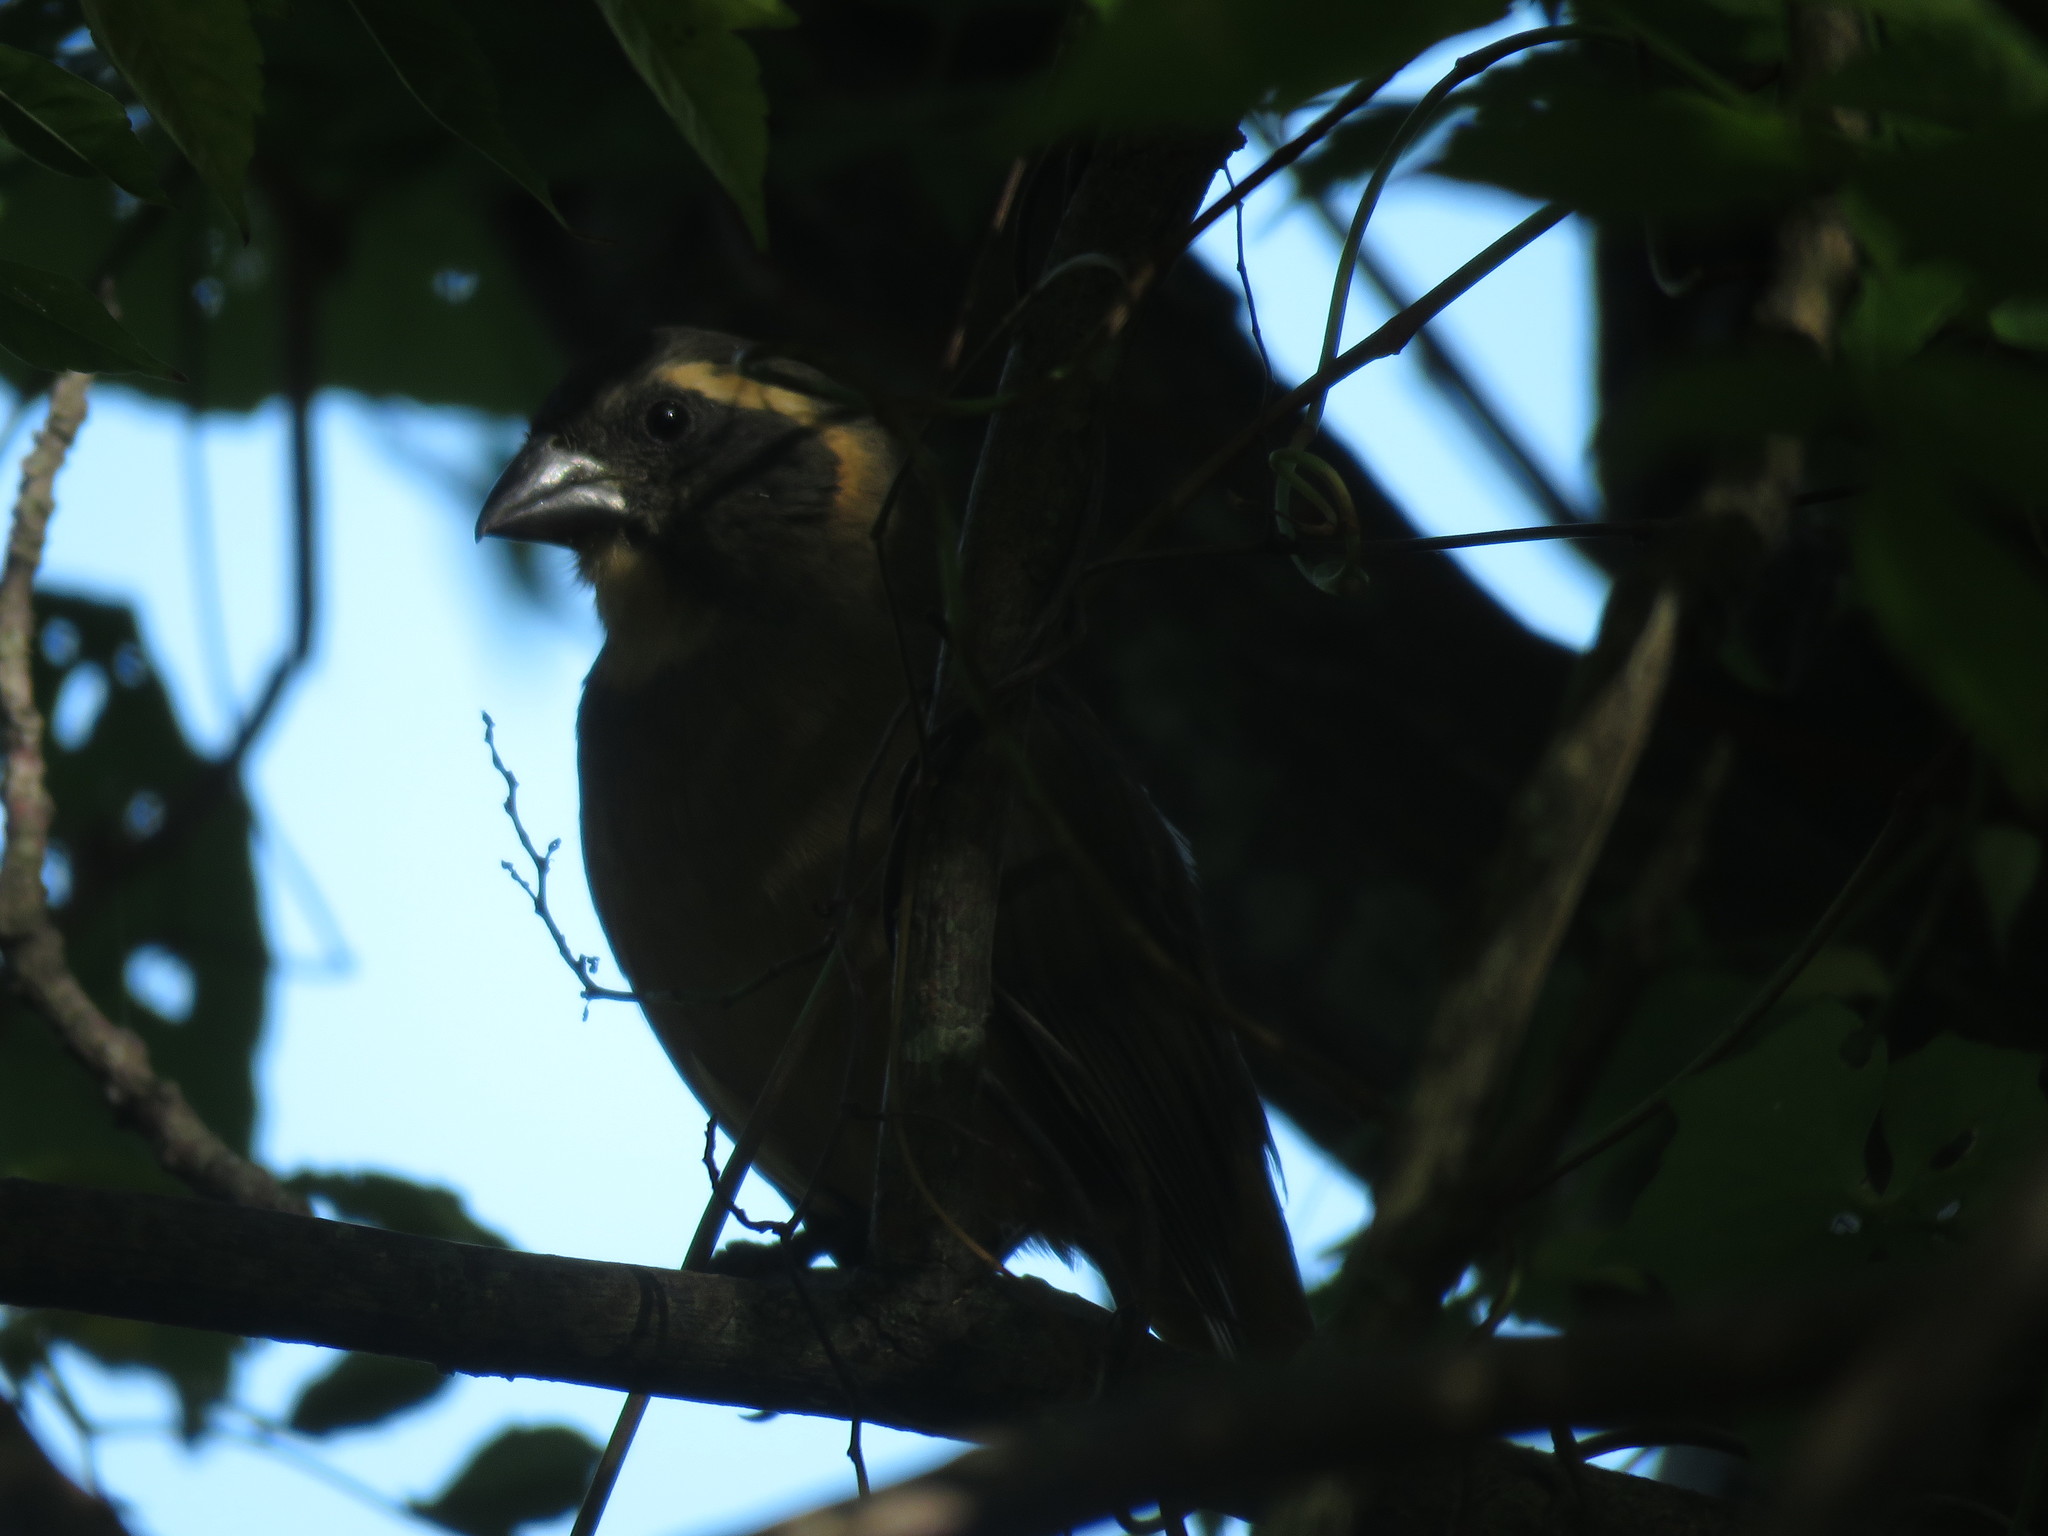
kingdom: Animalia
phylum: Chordata
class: Aves
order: Passeriformes
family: Thraupidae
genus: Saltator
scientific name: Saltator aurantiirostris
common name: Golden-billed saltator
